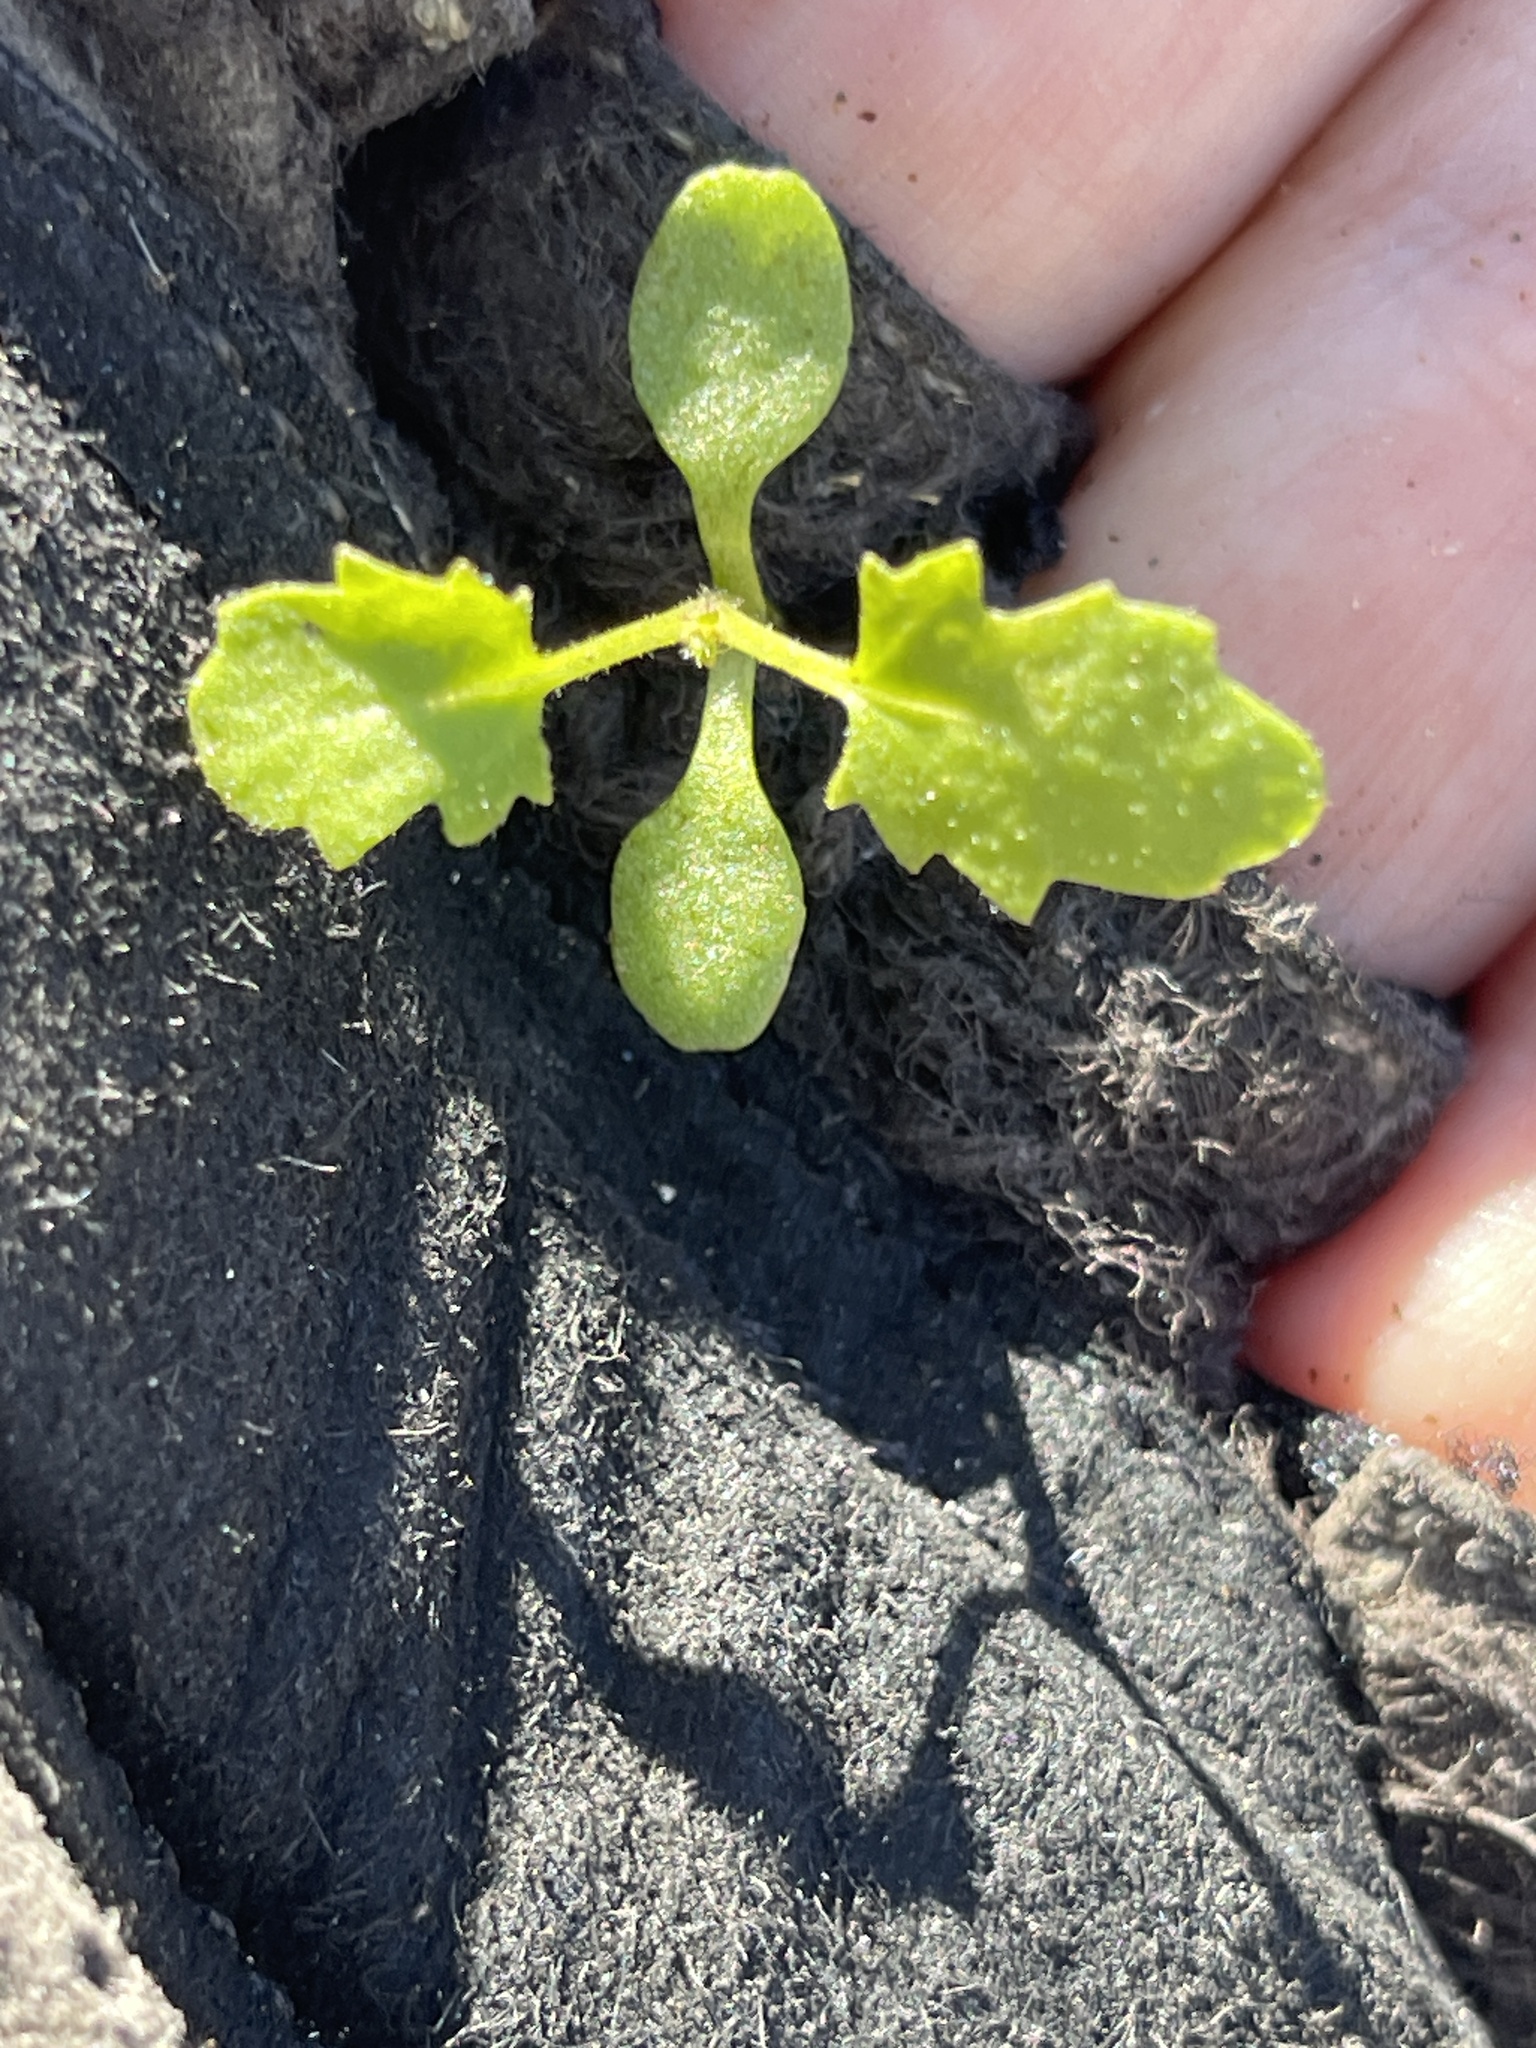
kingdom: Plantae
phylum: Tracheophyta
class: Magnoliopsida
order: Asterales
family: Asteraceae
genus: Laphamia
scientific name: Laphamia emoryi
